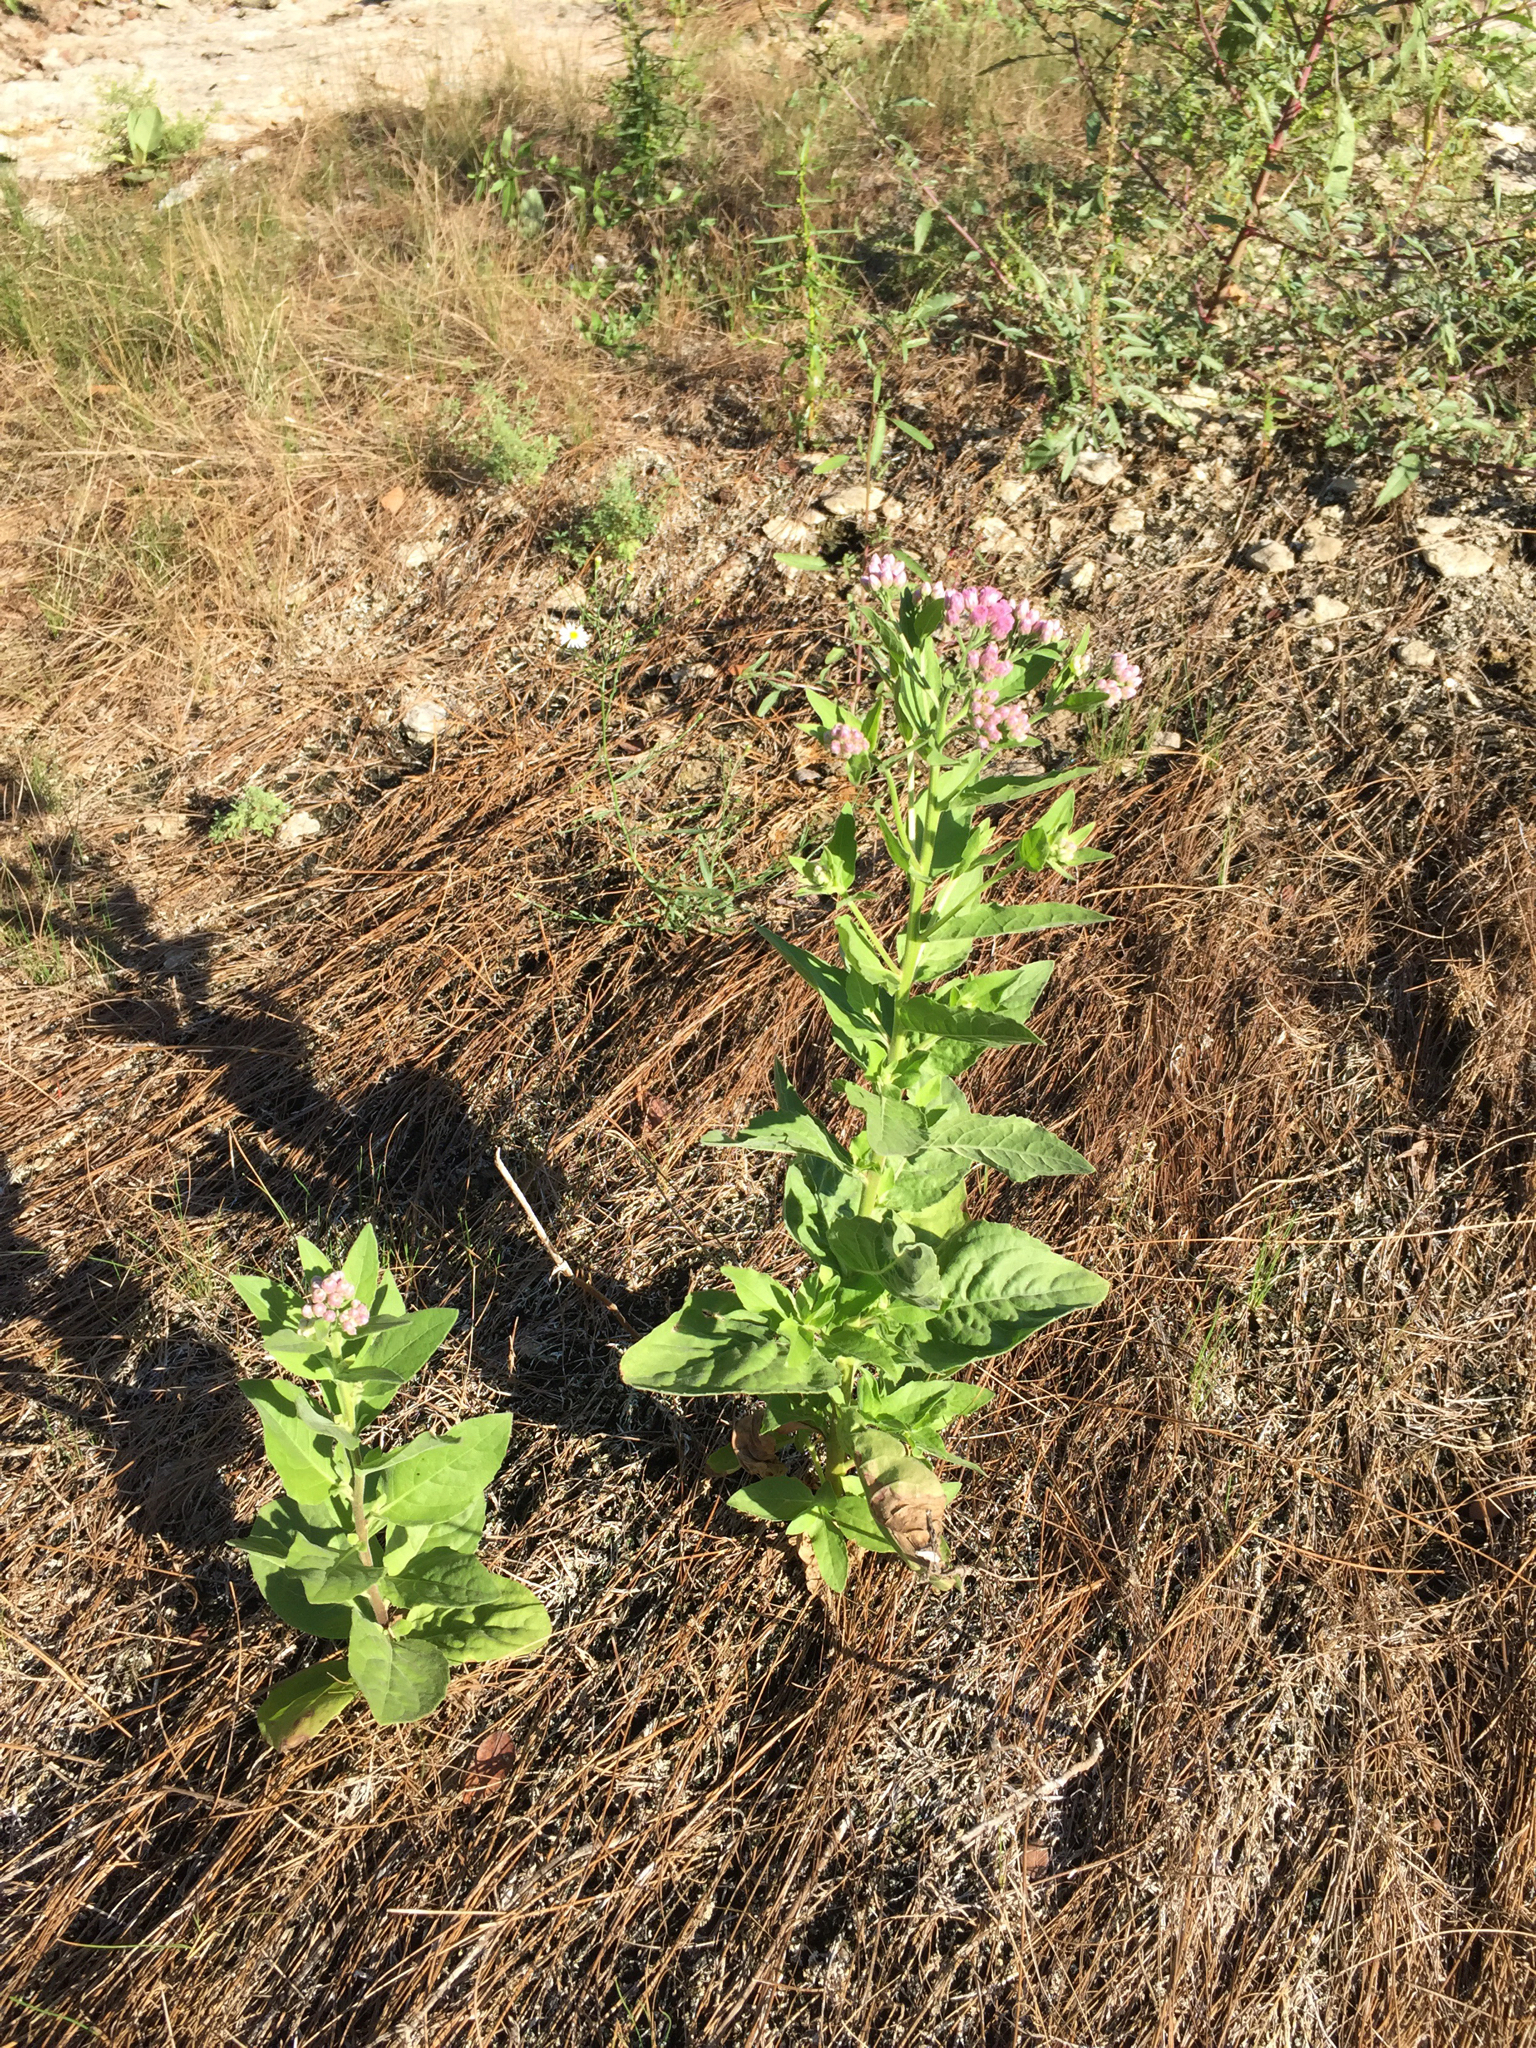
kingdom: Plantae
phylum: Tracheophyta
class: Magnoliopsida
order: Asterales
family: Asteraceae
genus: Pluchea
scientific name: Pluchea odorata
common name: Saltmarsh fleabane
